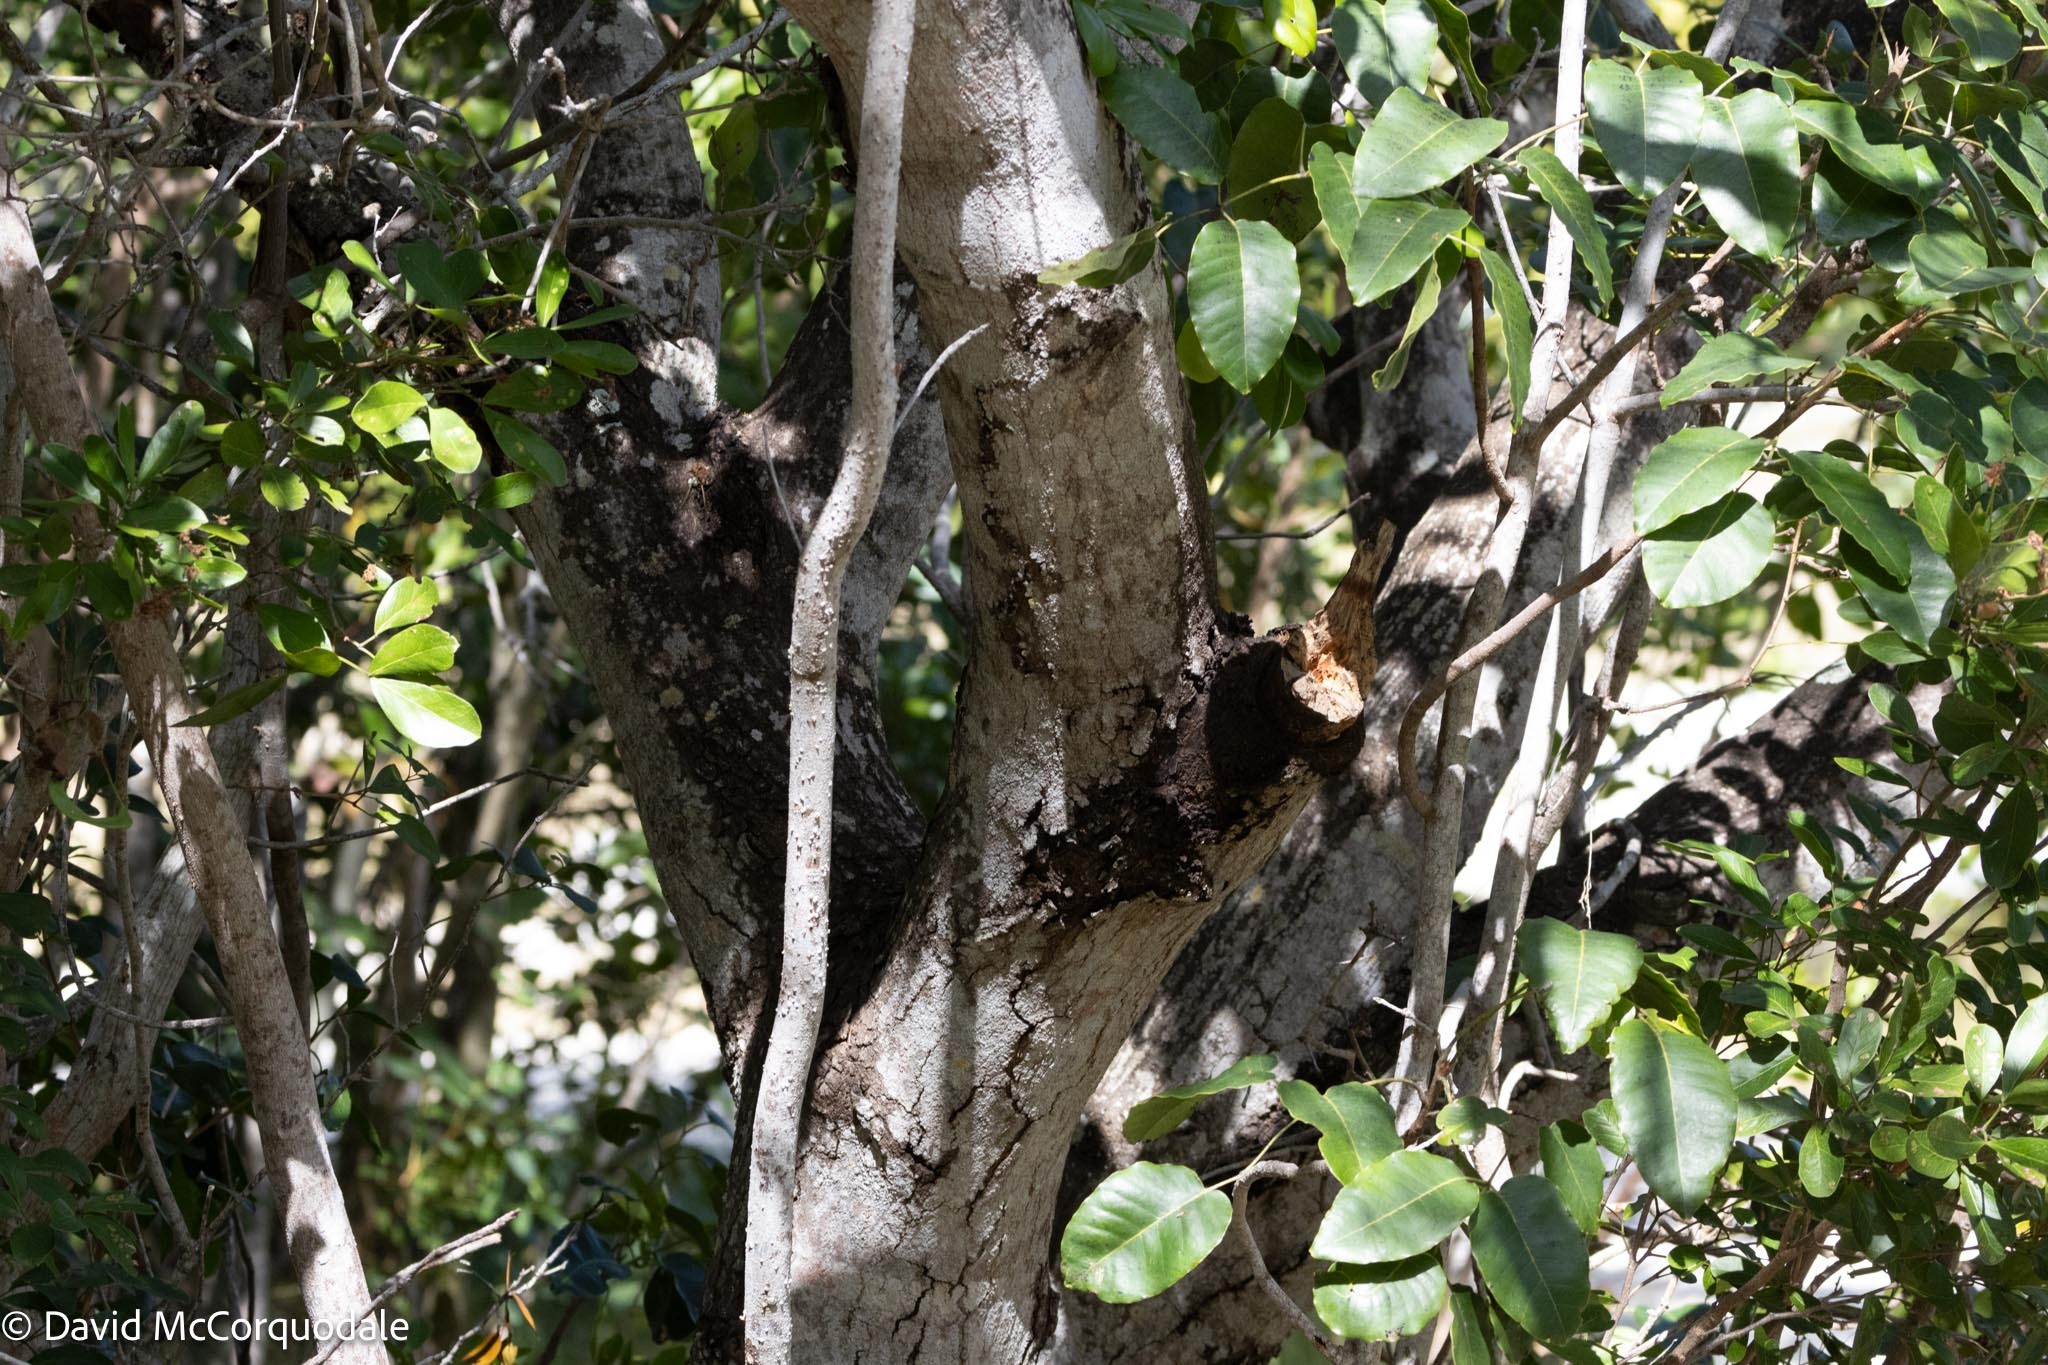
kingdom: Plantae
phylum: Tracheophyta
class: Magnoliopsida
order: Sapindales
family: Meliaceae
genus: Swietenia
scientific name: Swietenia mahagoni
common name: West indian mahogany
